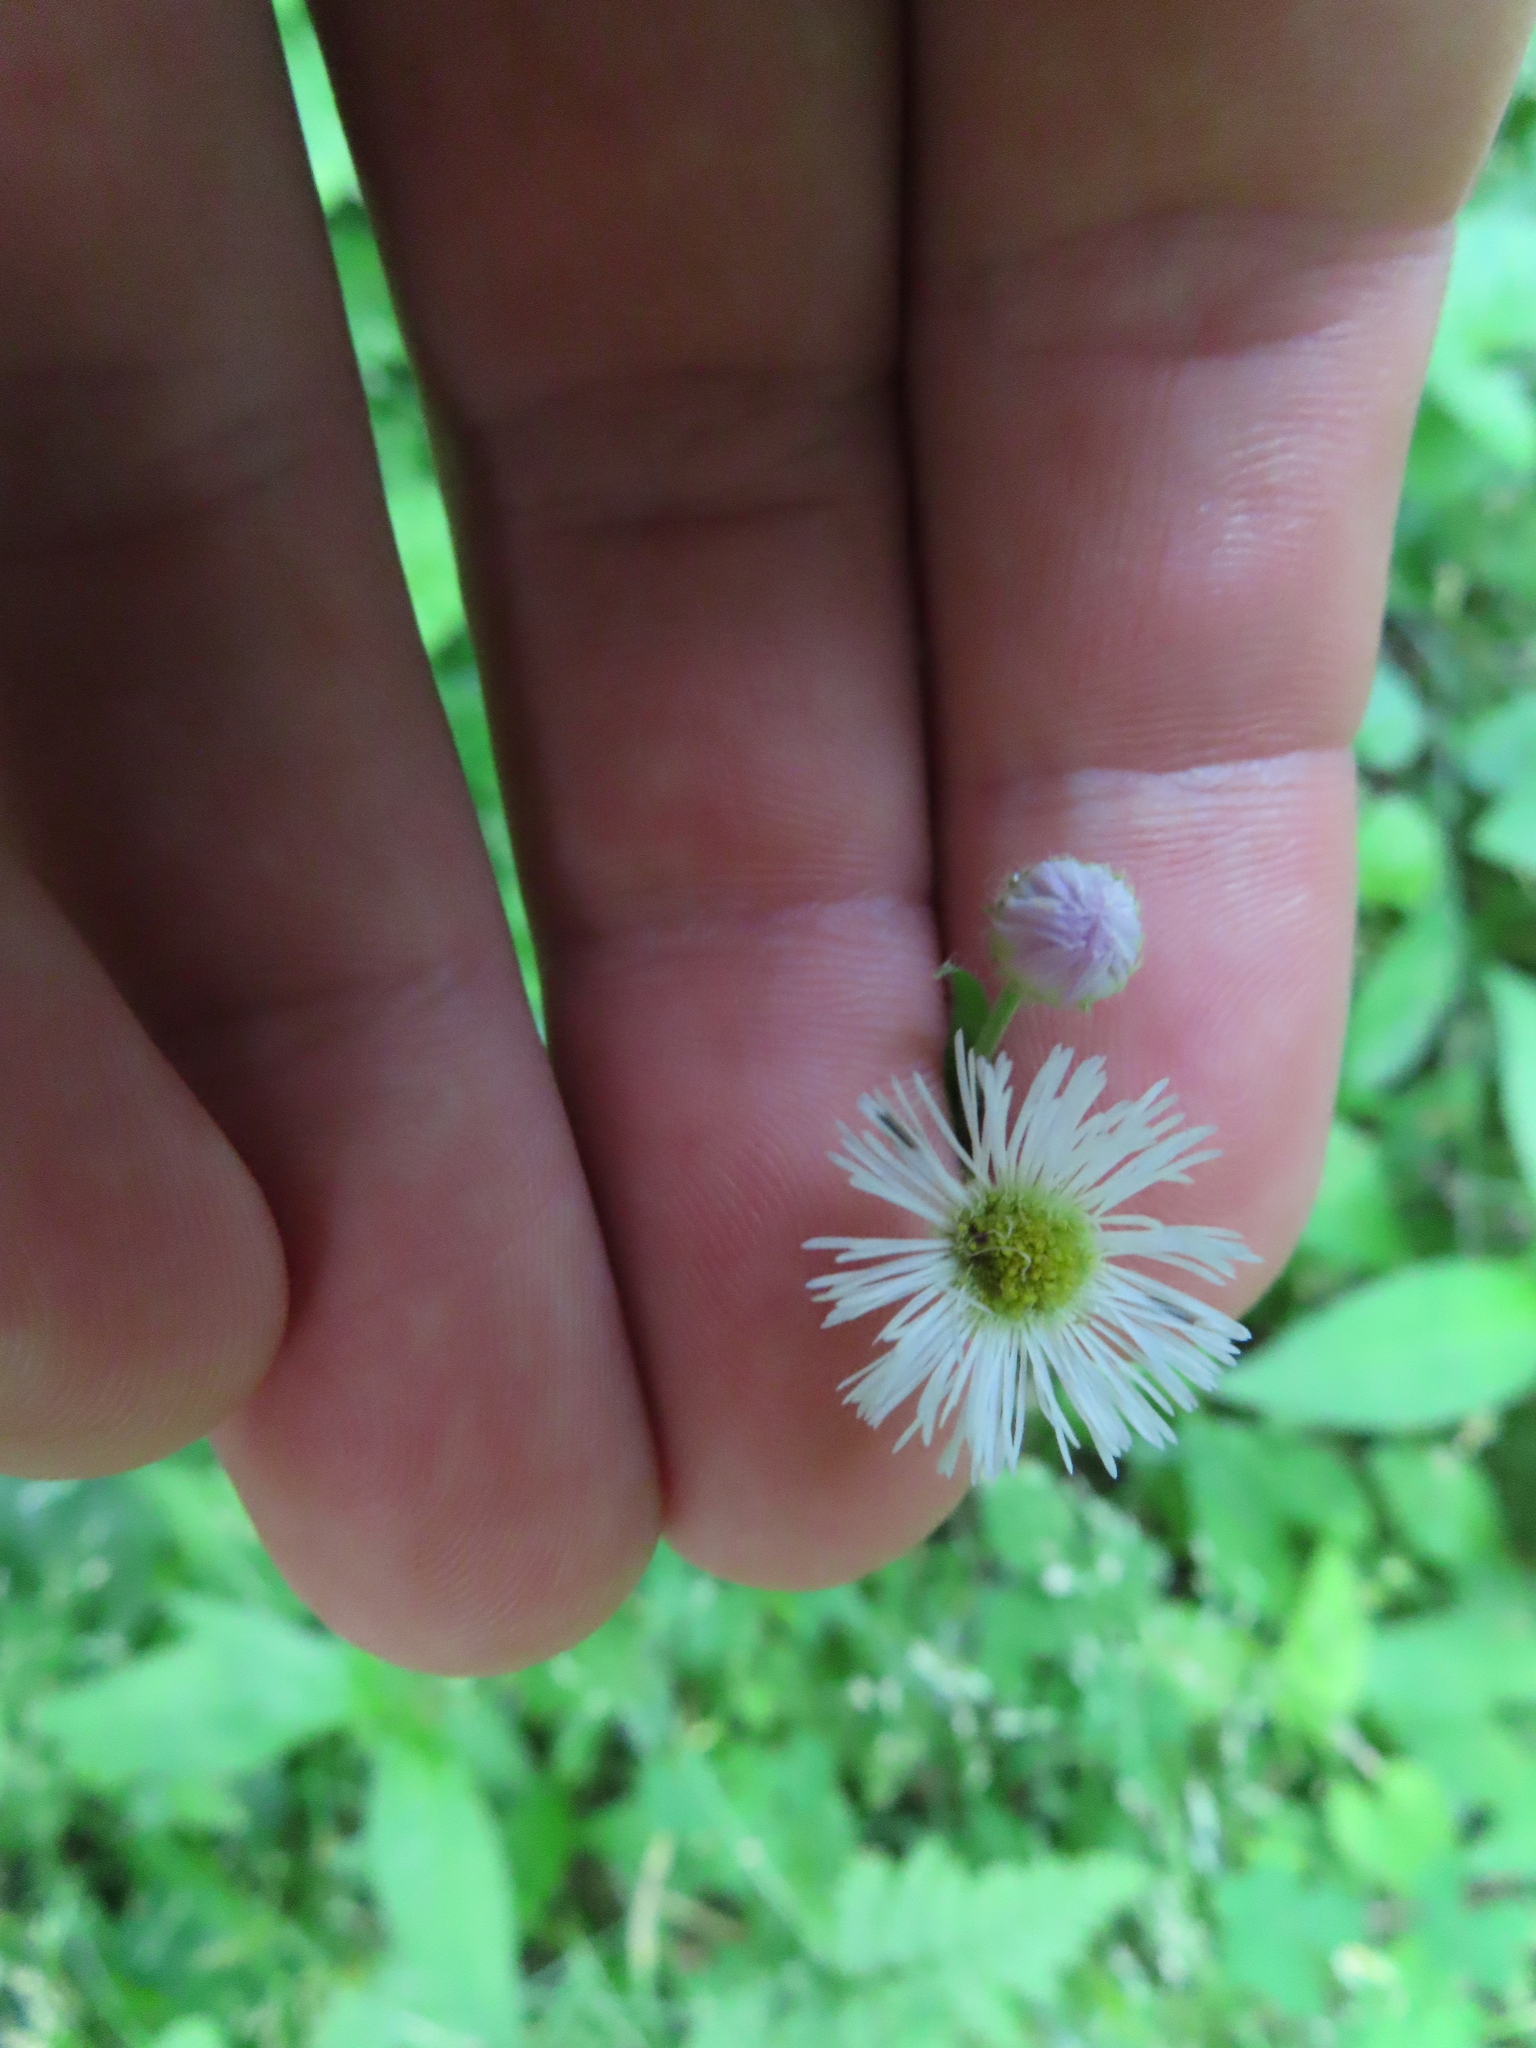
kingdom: Plantae
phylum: Tracheophyta
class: Magnoliopsida
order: Asterales
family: Asteraceae
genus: Erigeron
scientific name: Erigeron philadelphicus
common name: Robin's-plantain
